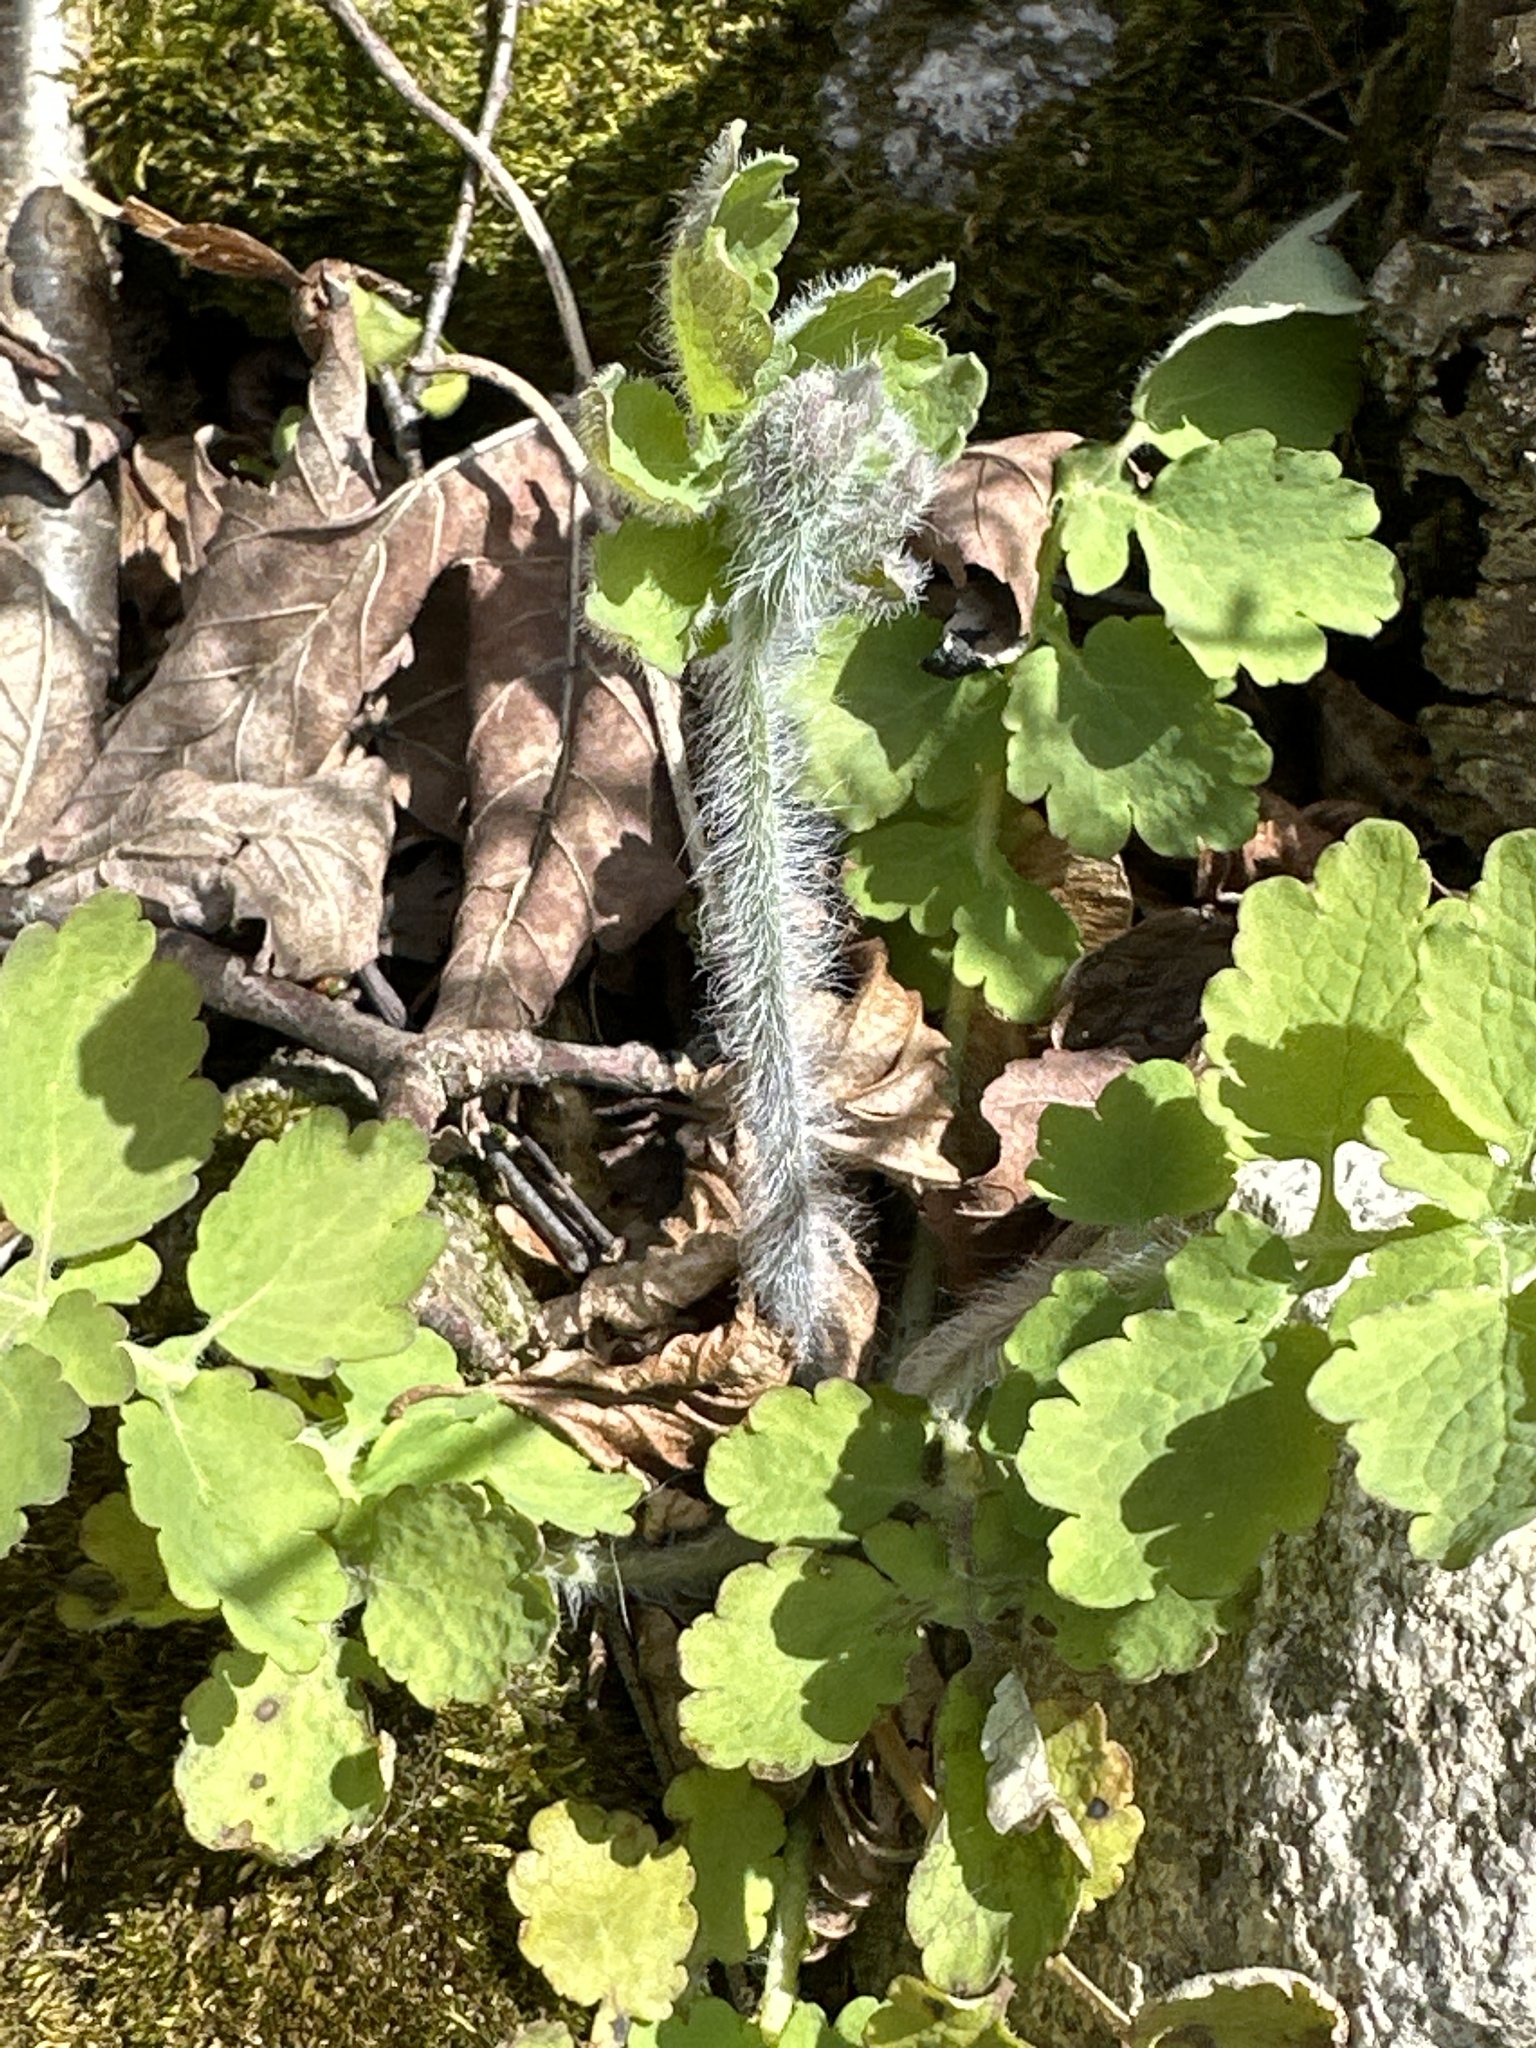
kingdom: Plantae
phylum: Tracheophyta
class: Magnoliopsida
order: Ranunculales
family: Papaveraceae
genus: Chelidonium
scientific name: Chelidonium majus
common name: Greater celandine
